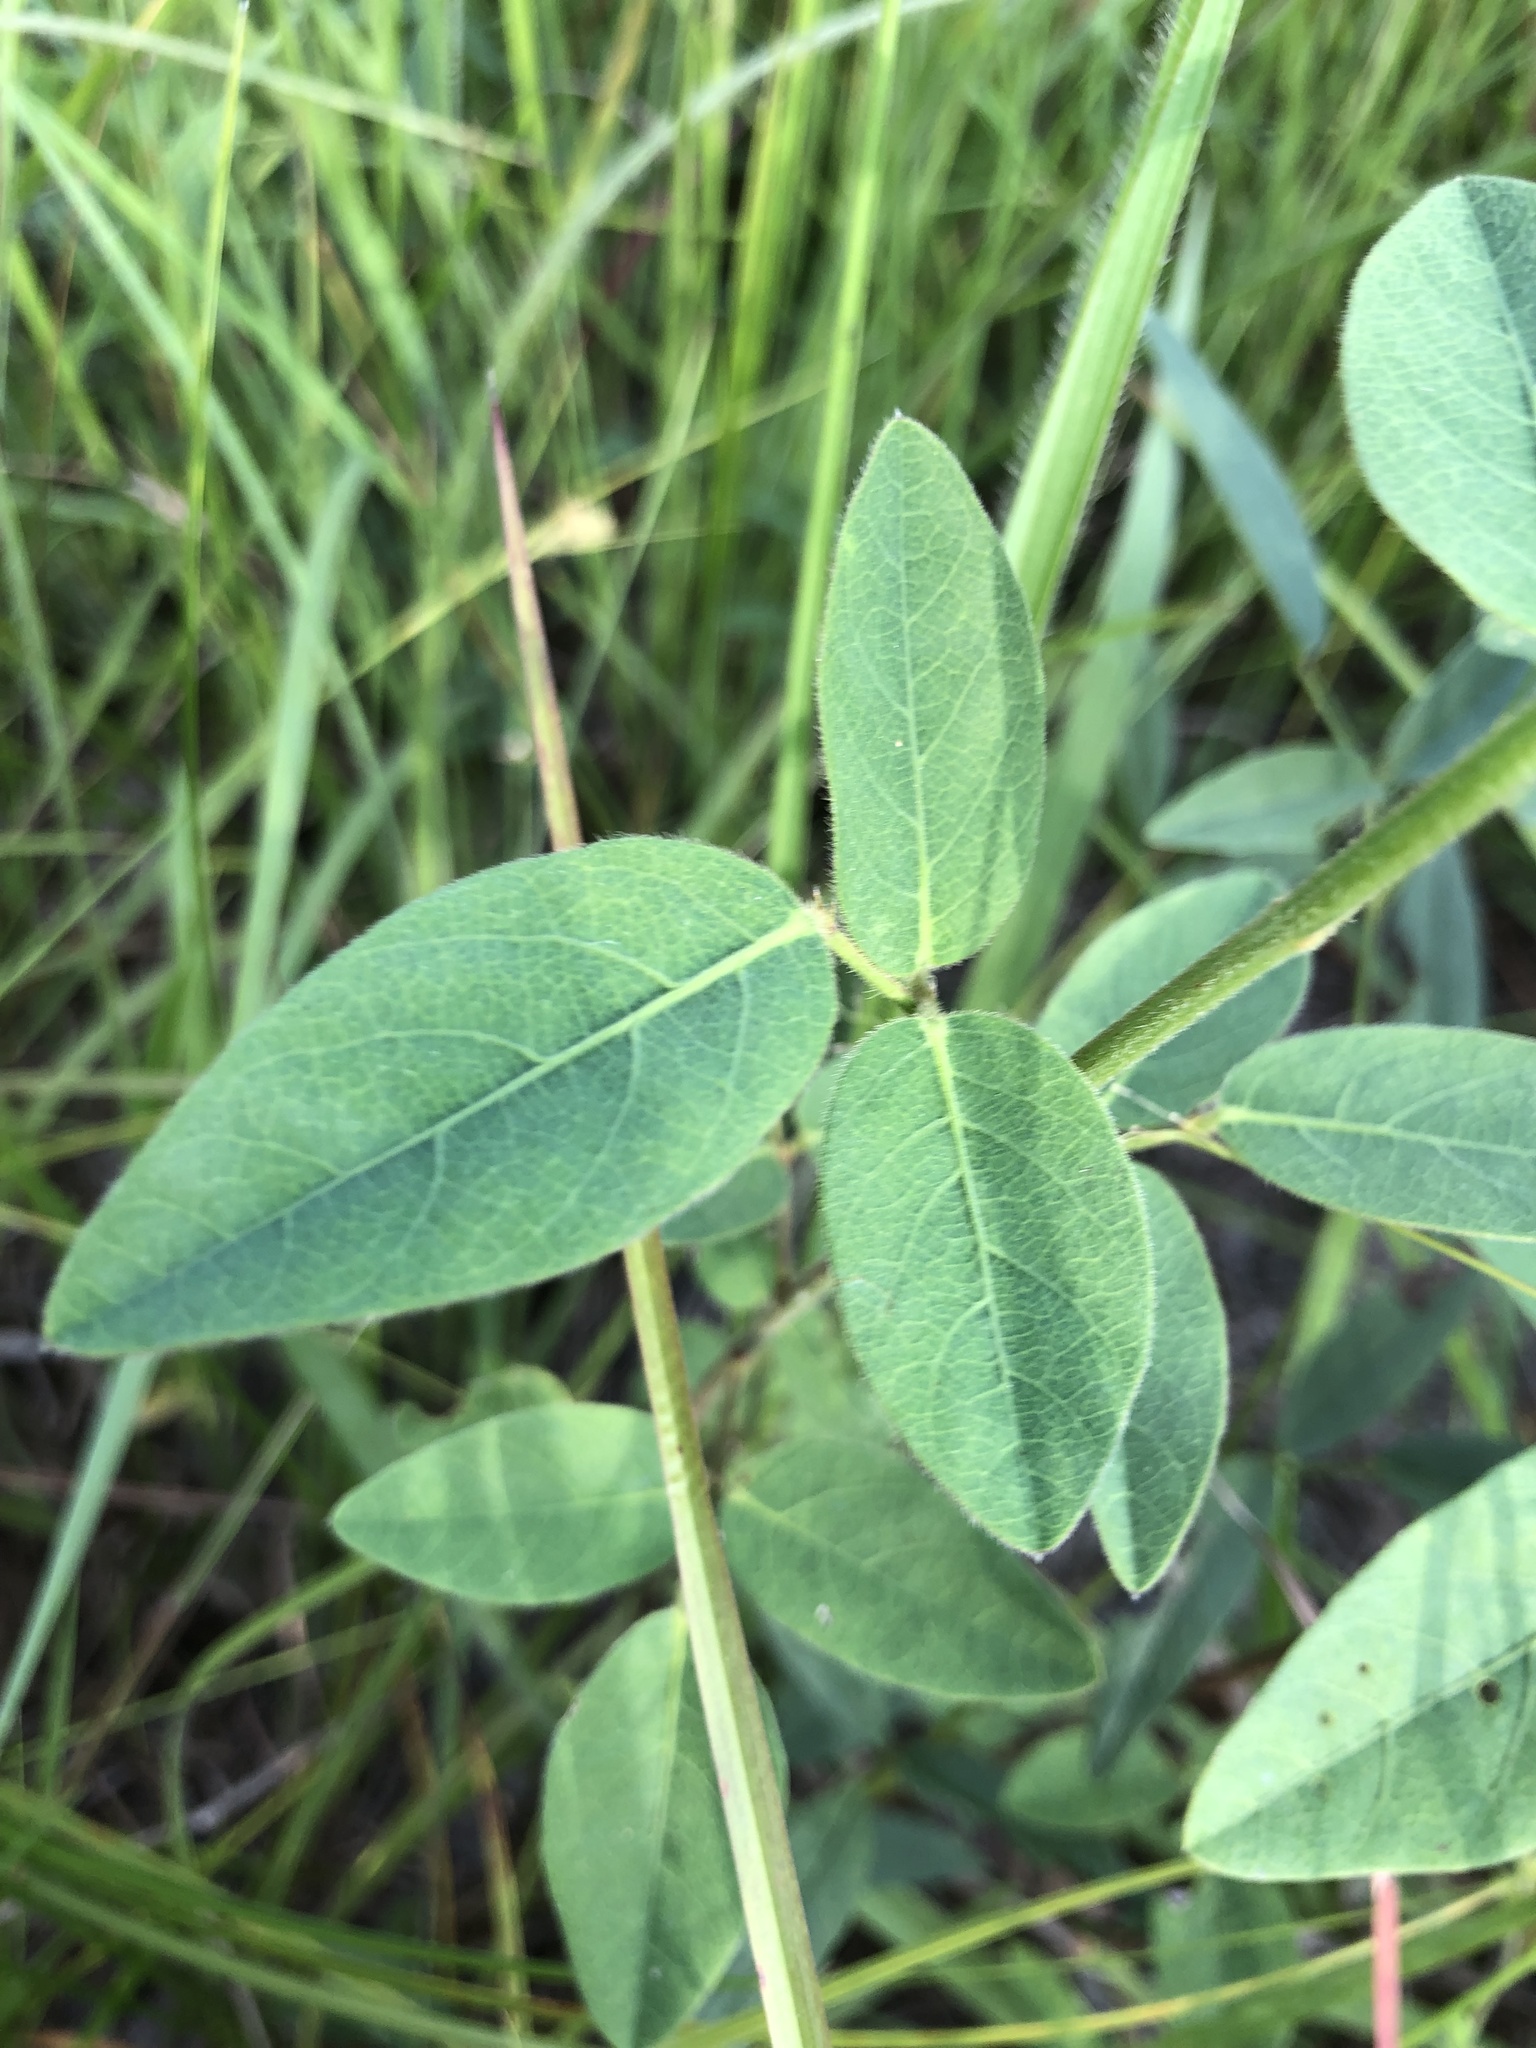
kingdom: Plantae
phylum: Tracheophyta
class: Magnoliopsida
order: Fabales
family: Fabaceae
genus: Desmodium
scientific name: Desmodium nuttallii
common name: Nuttall's tick trefoil
